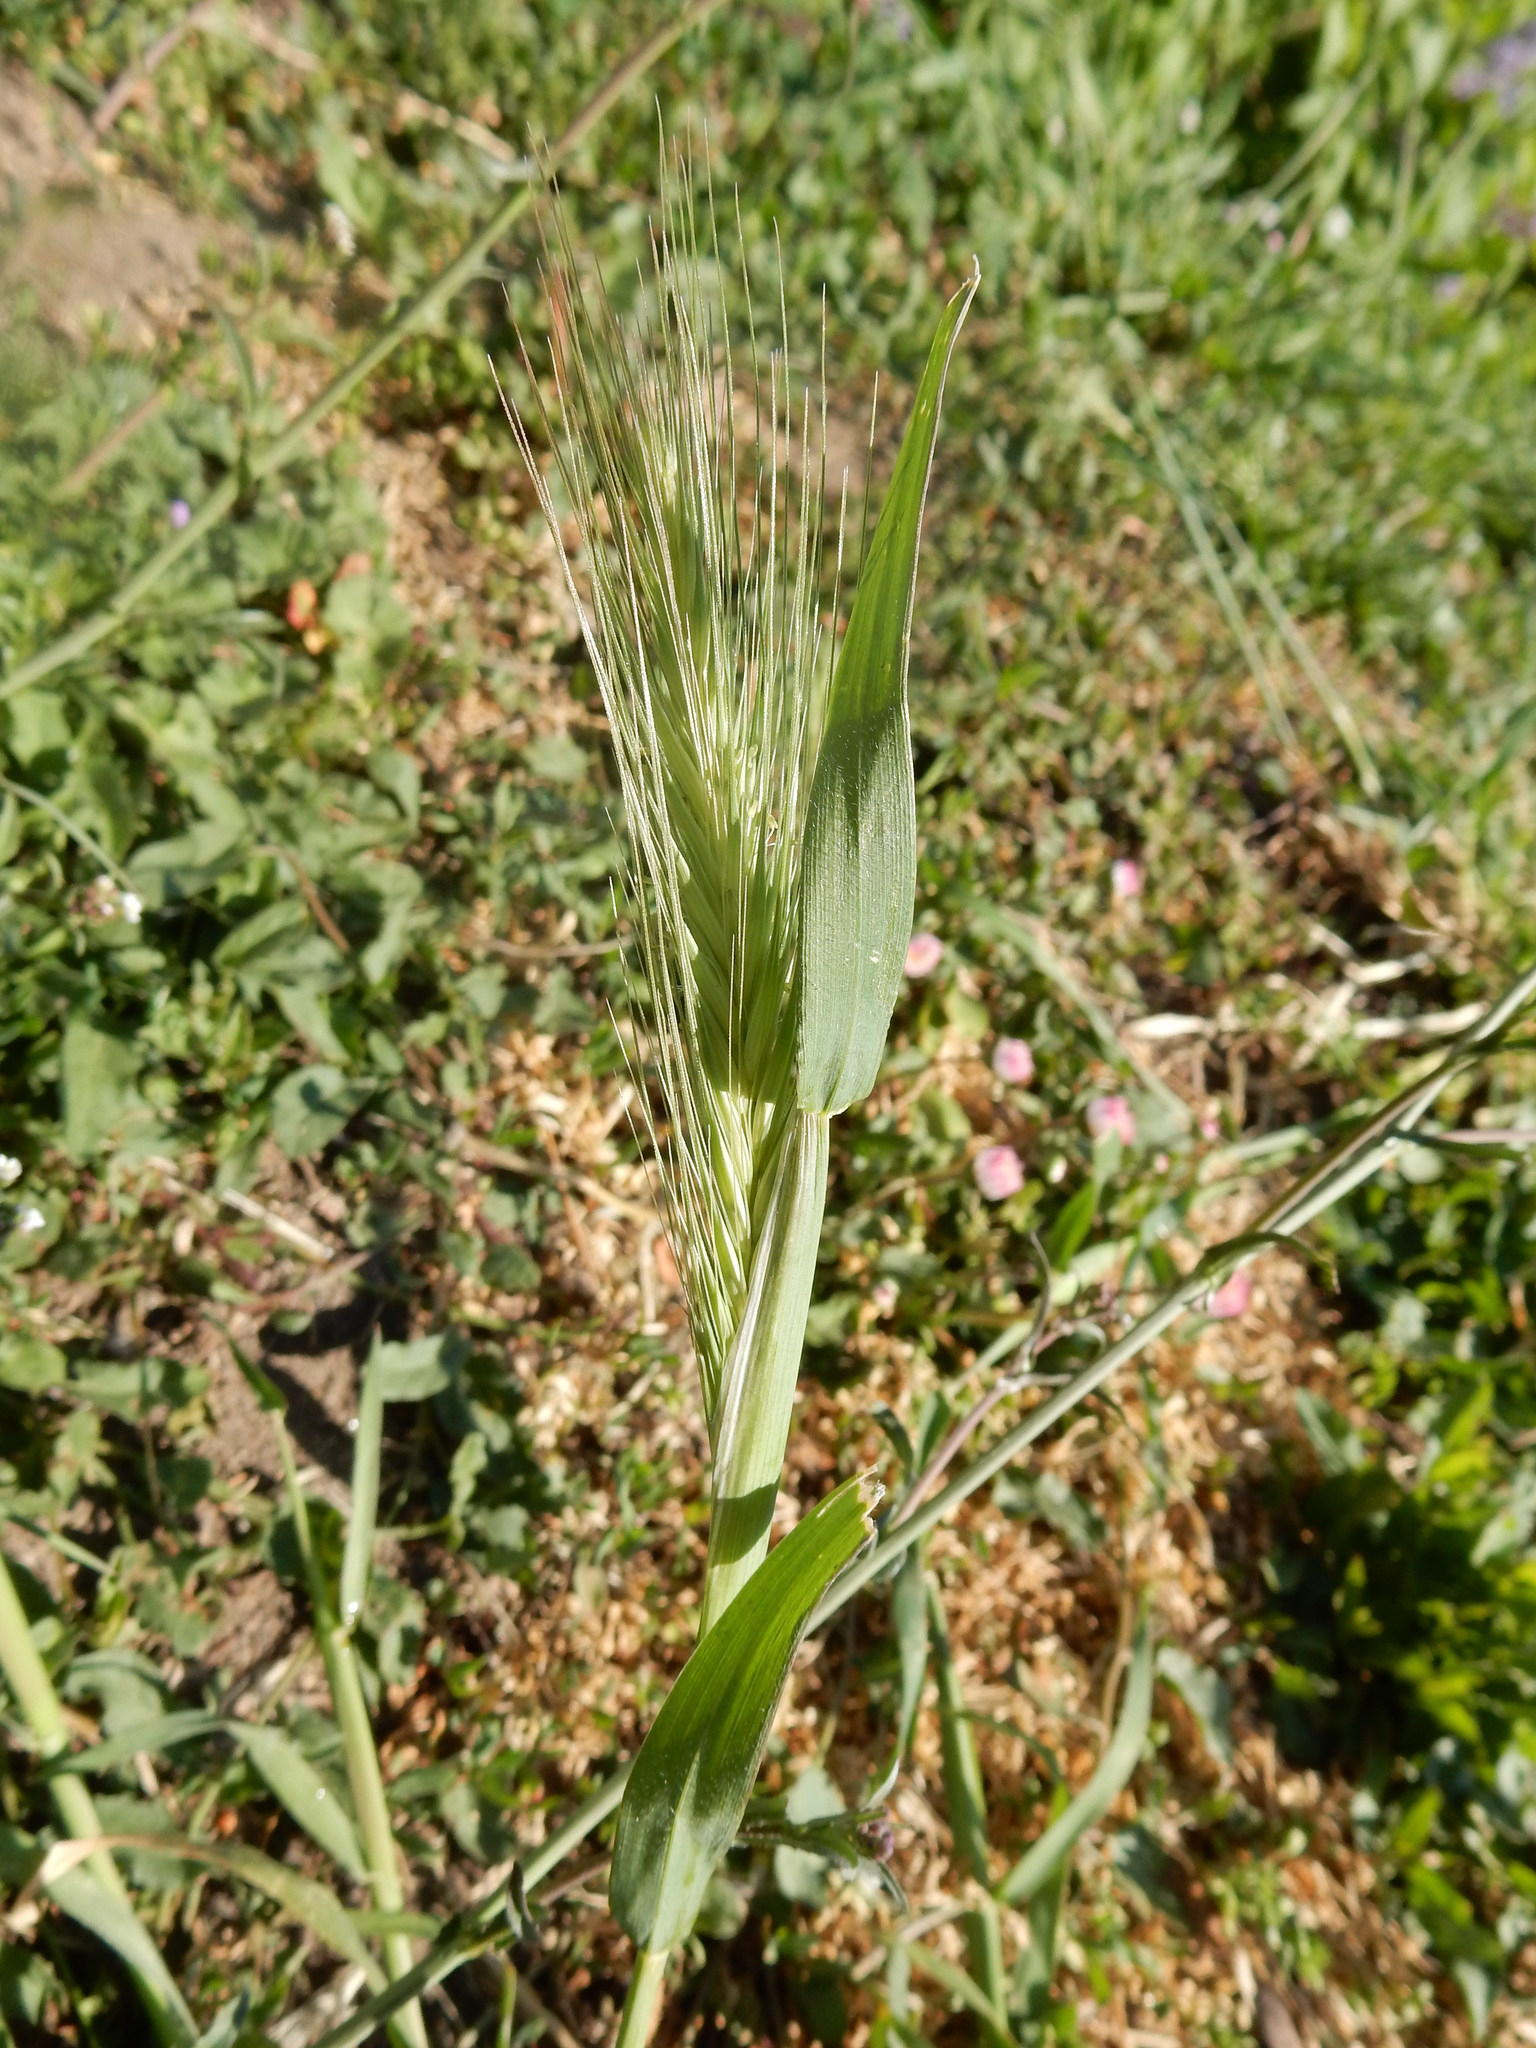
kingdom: Plantae
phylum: Tracheophyta
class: Liliopsida
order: Poales
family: Poaceae
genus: Hordeum
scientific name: Hordeum murinum
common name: Wall barley
